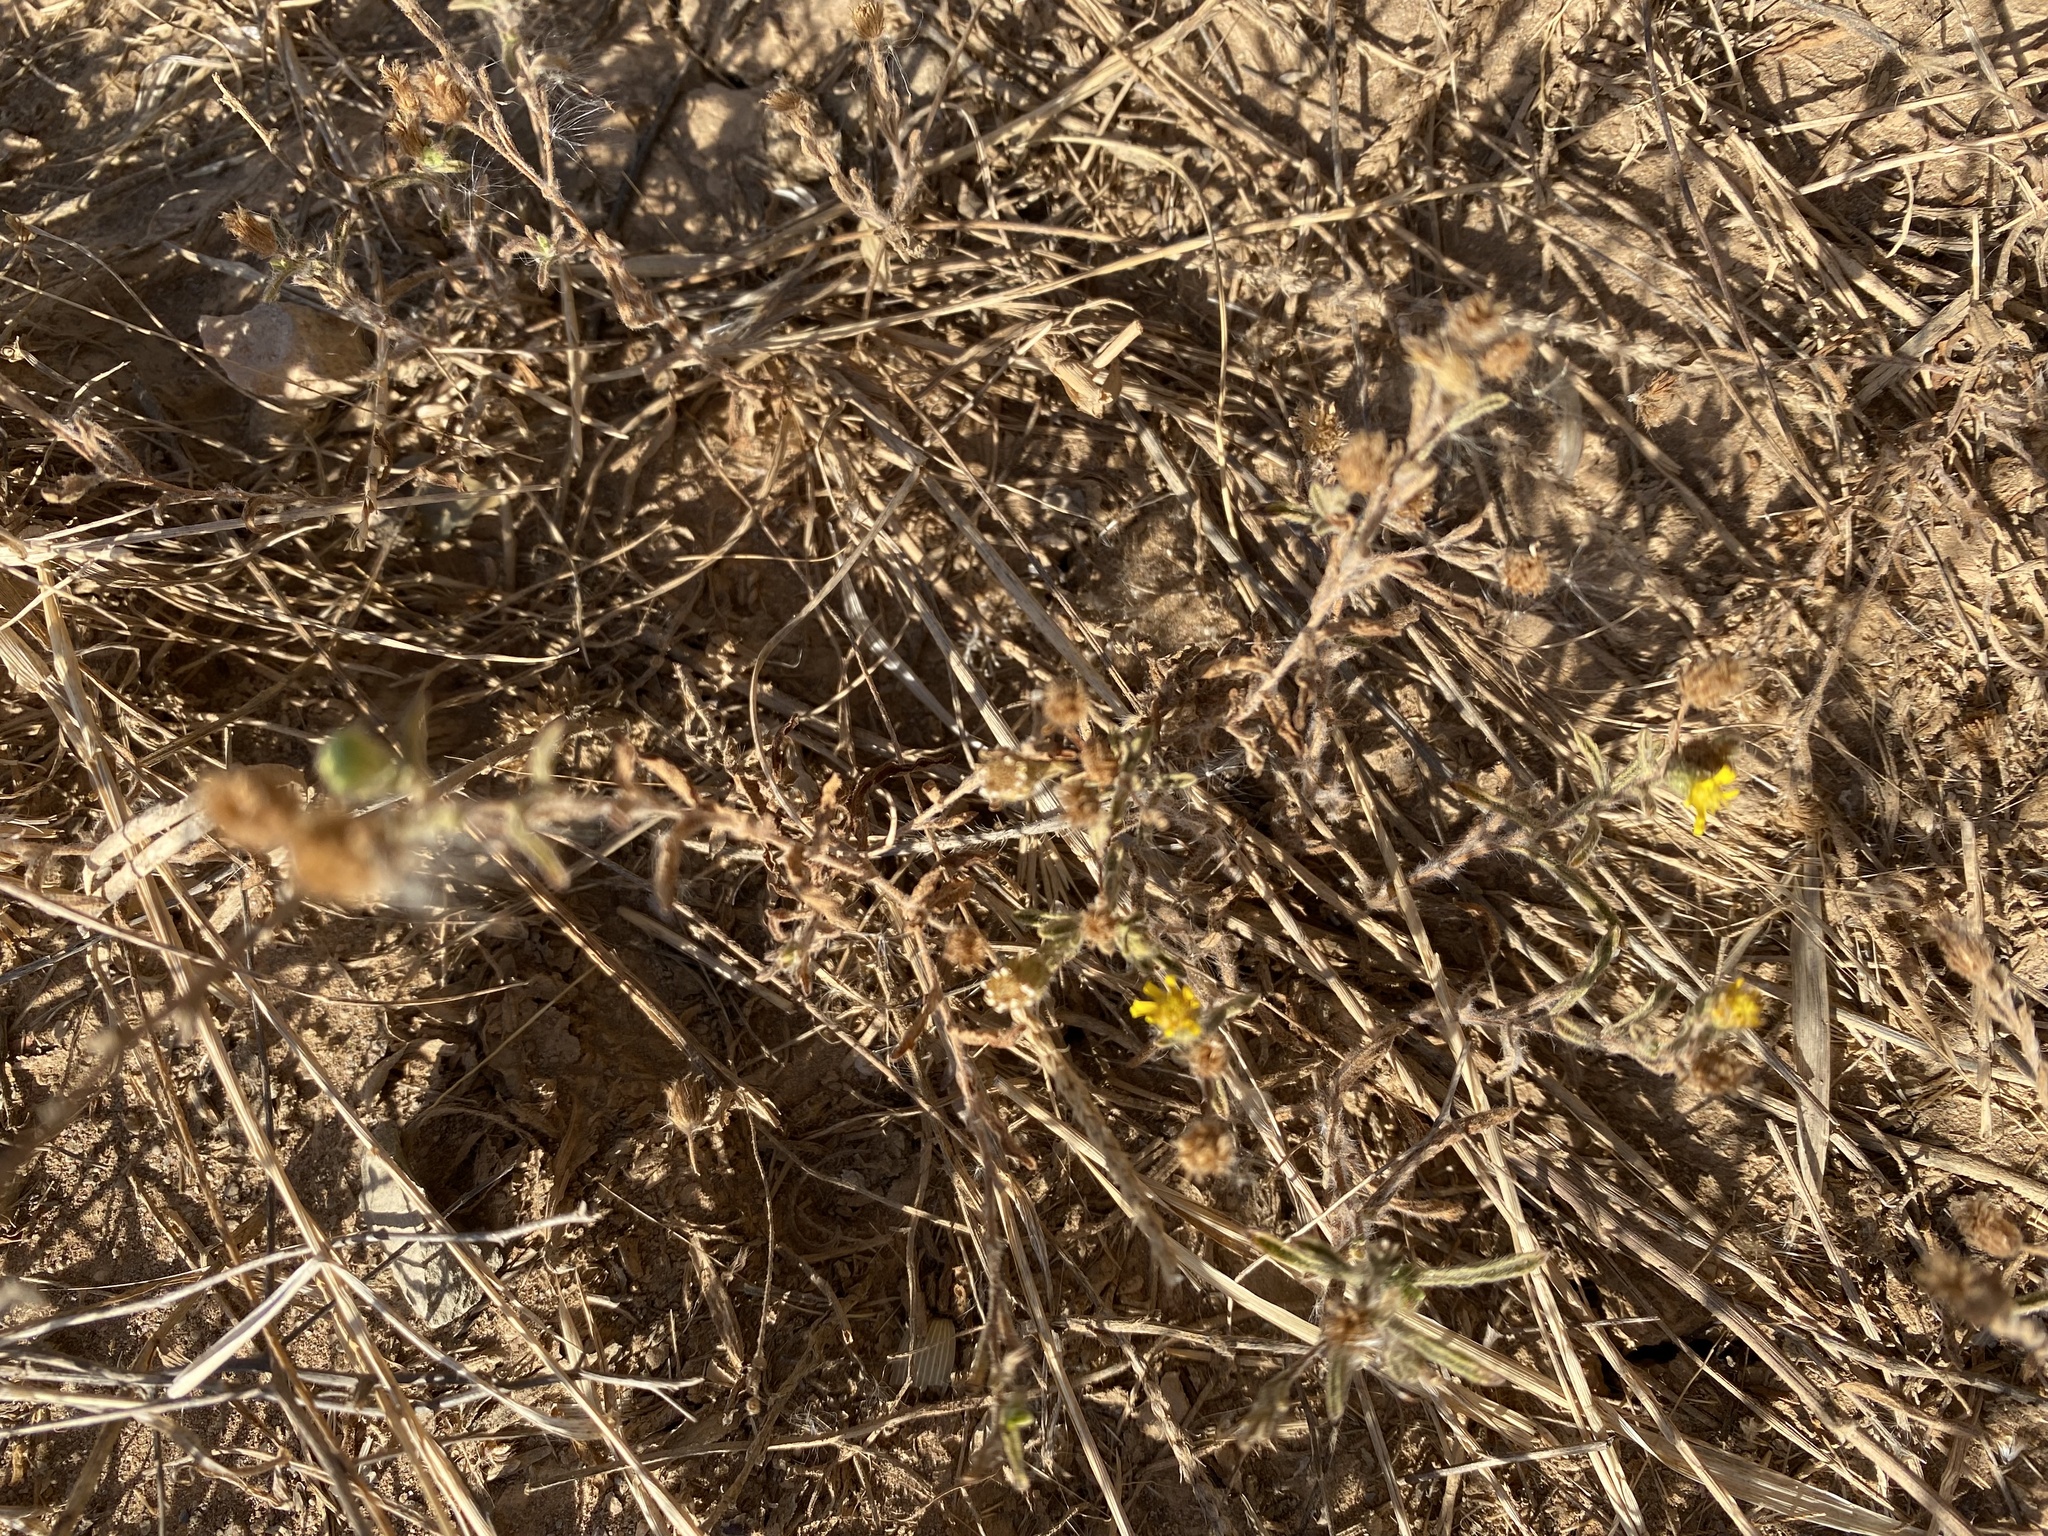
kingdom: Plantae
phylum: Tracheophyta
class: Magnoliopsida
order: Asterales
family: Asteraceae
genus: Pulicaria
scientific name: Pulicaria paludosa
